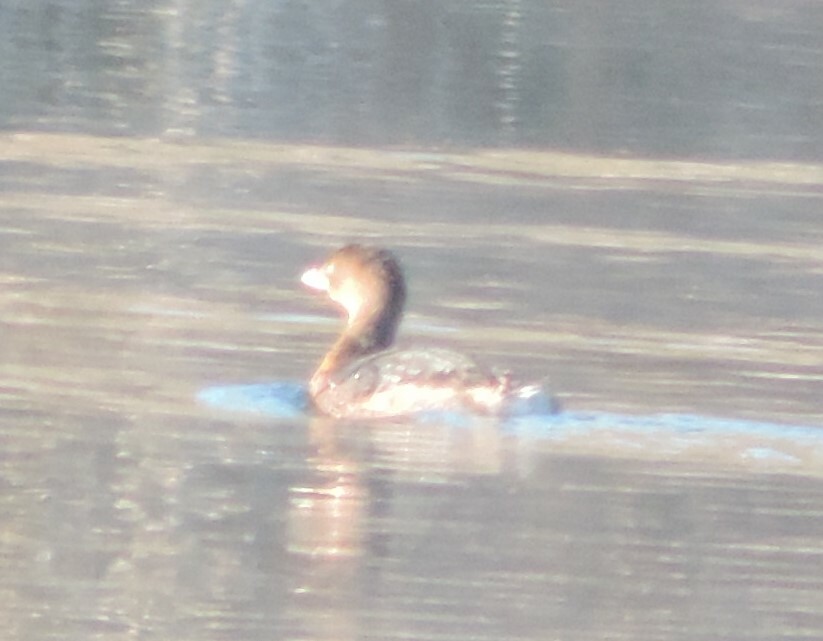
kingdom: Animalia
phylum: Chordata
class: Aves
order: Podicipediformes
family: Podicipedidae
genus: Podilymbus
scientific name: Podilymbus podiceps
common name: Pied-billed grebe
